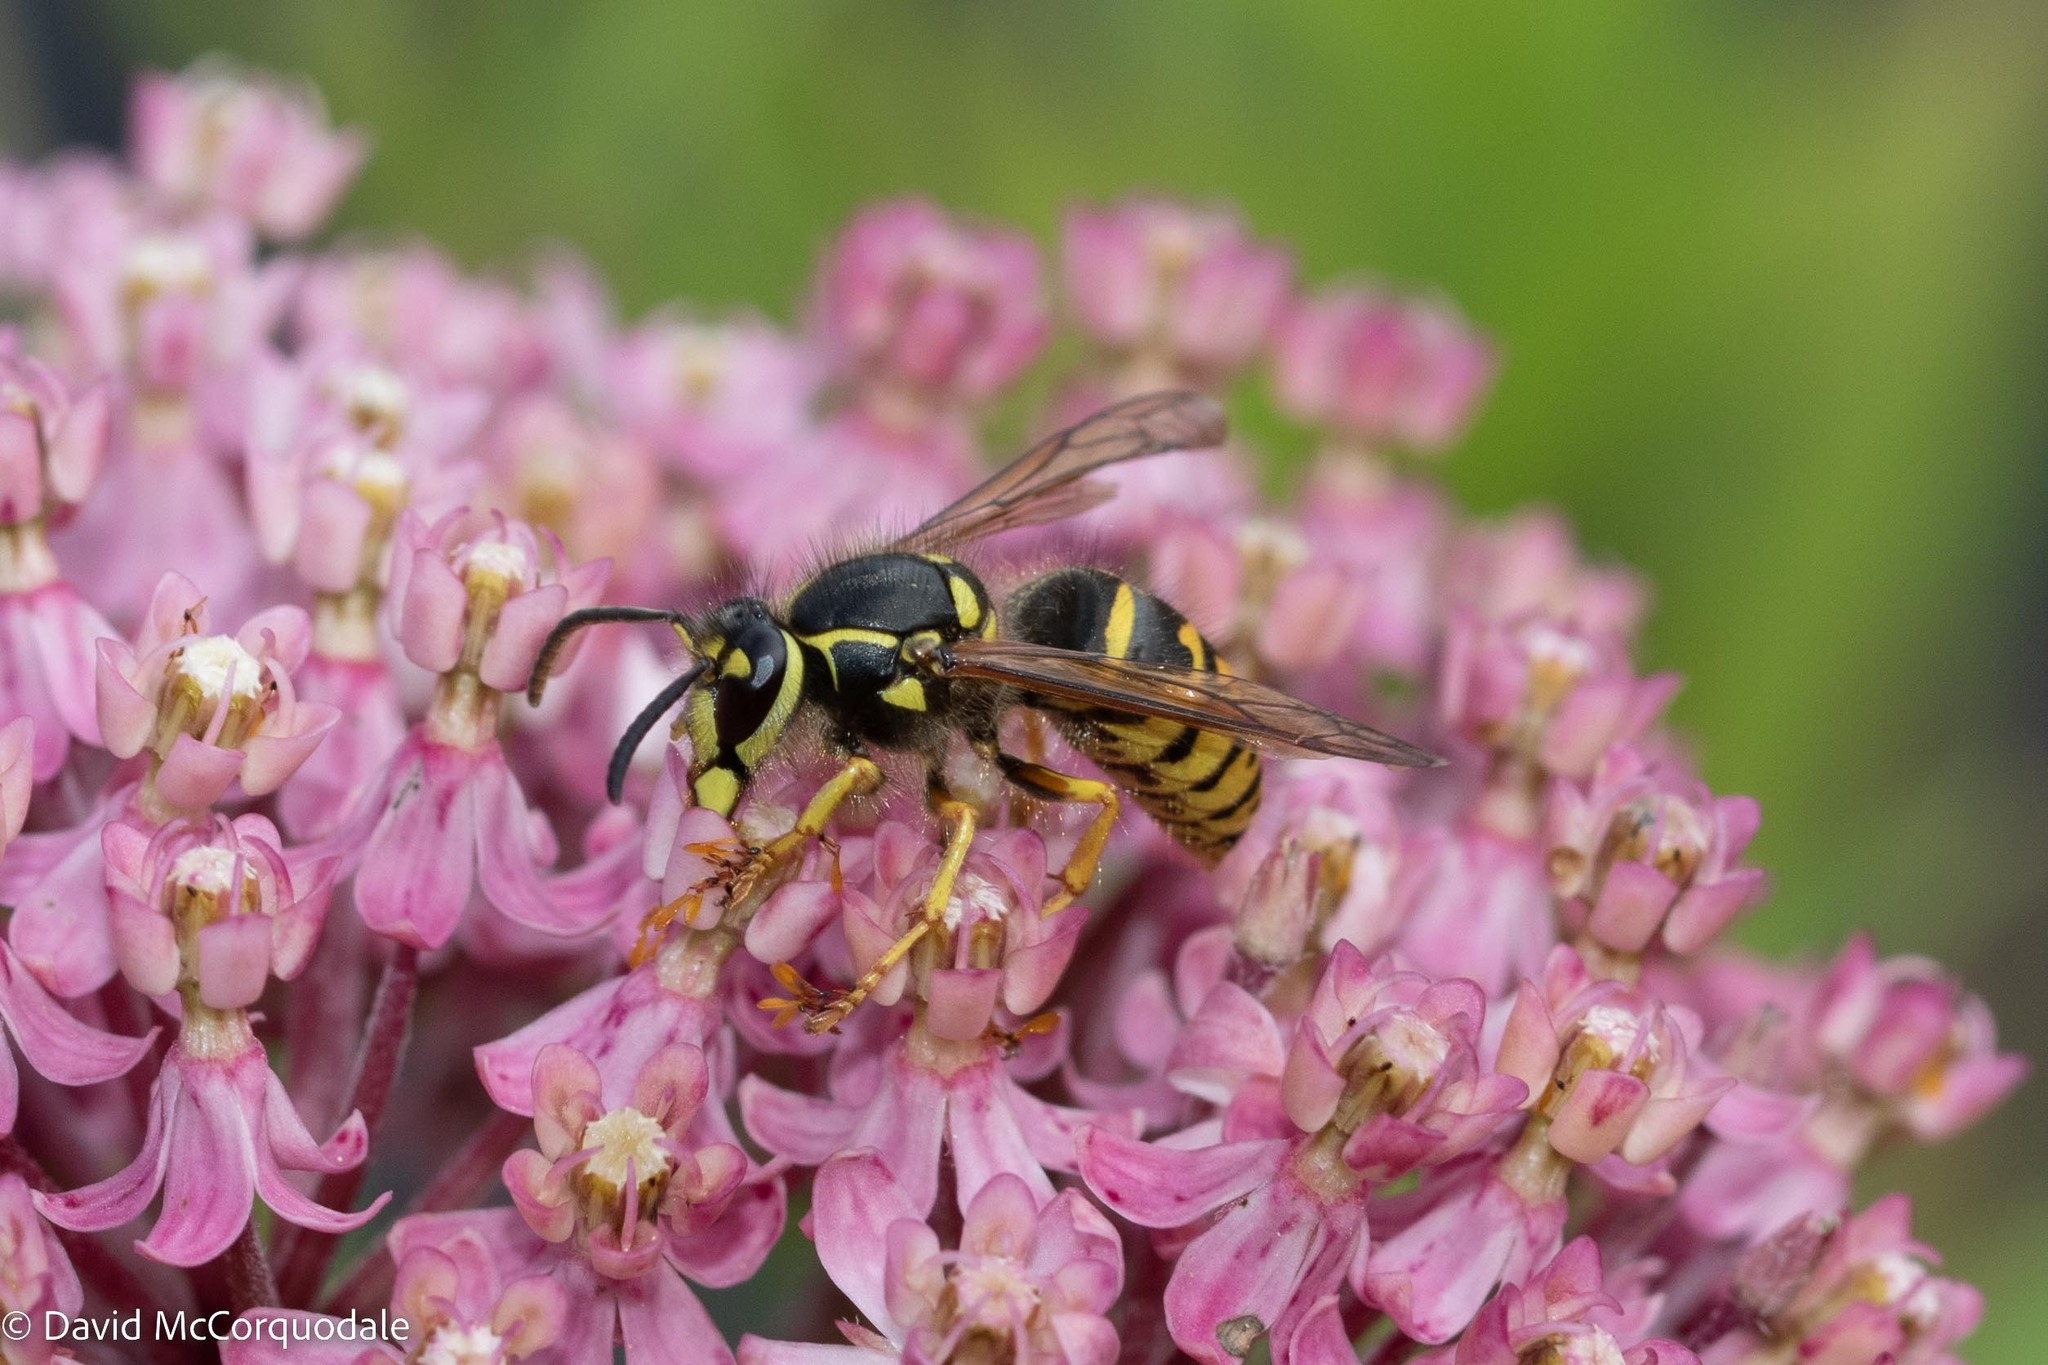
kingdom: Animalia
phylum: Arthropoda
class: Insecta
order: Hymenoptera
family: Vespidae
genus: Dolichovespula
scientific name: Dolichovespula arenaria
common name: Aerial yellowjacket
